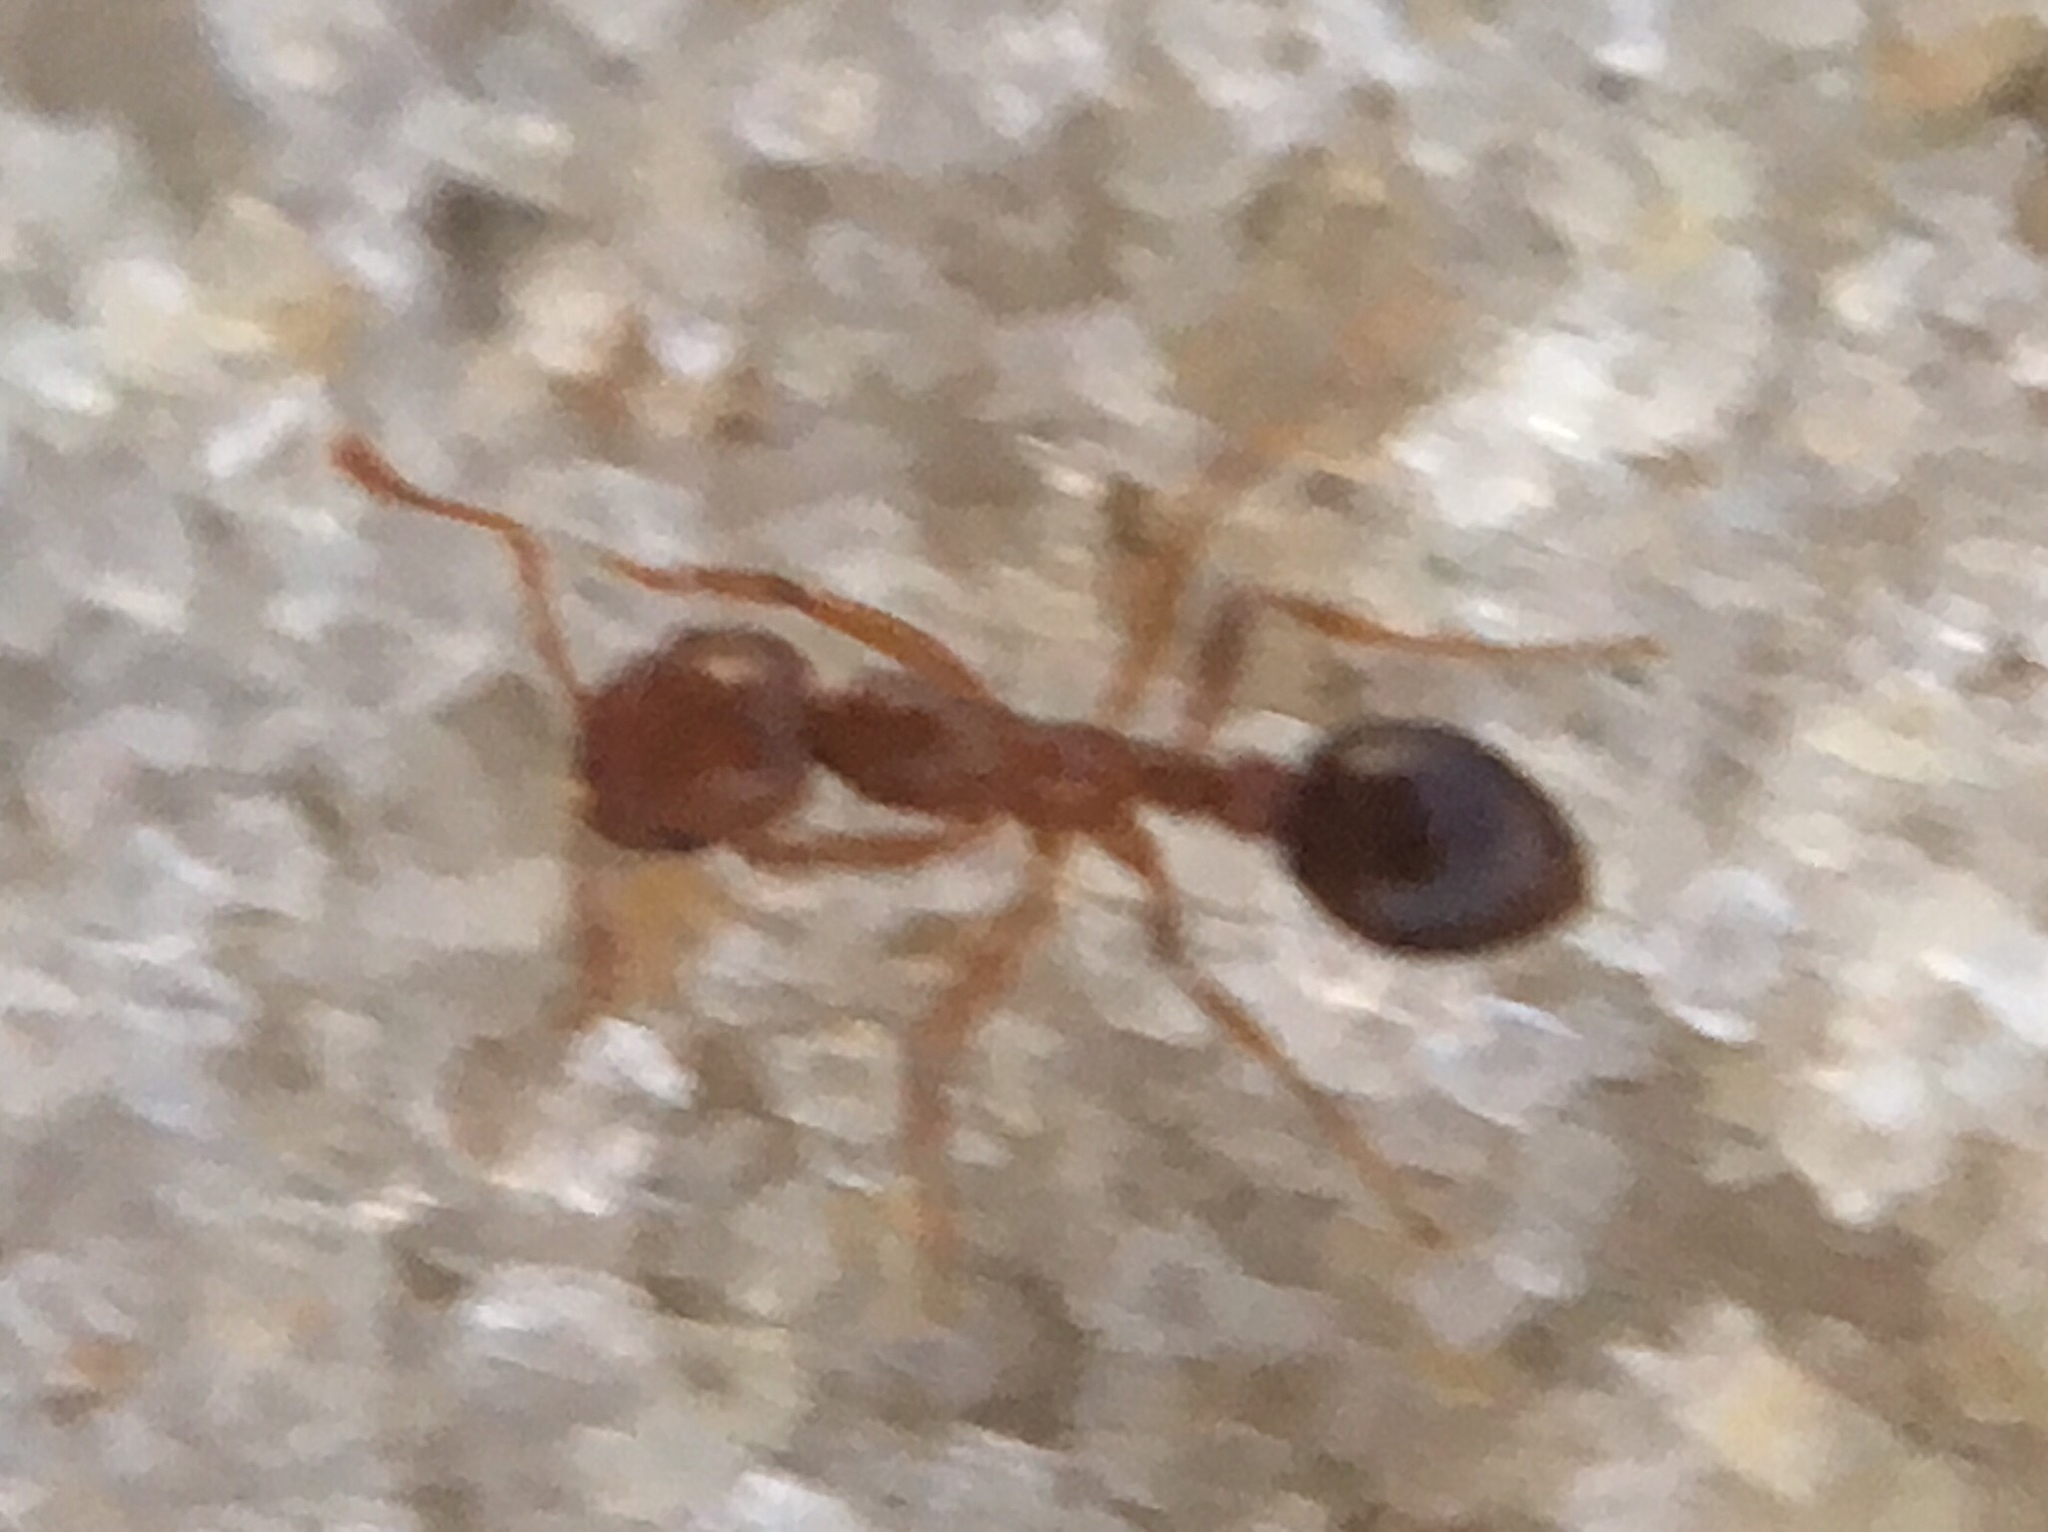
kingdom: Animalia
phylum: Arthropoda
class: Insecta
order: Hymenoptera
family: Formicidae
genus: Solenopsis
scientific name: Solenopsis invicta
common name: Red imported fire ant
